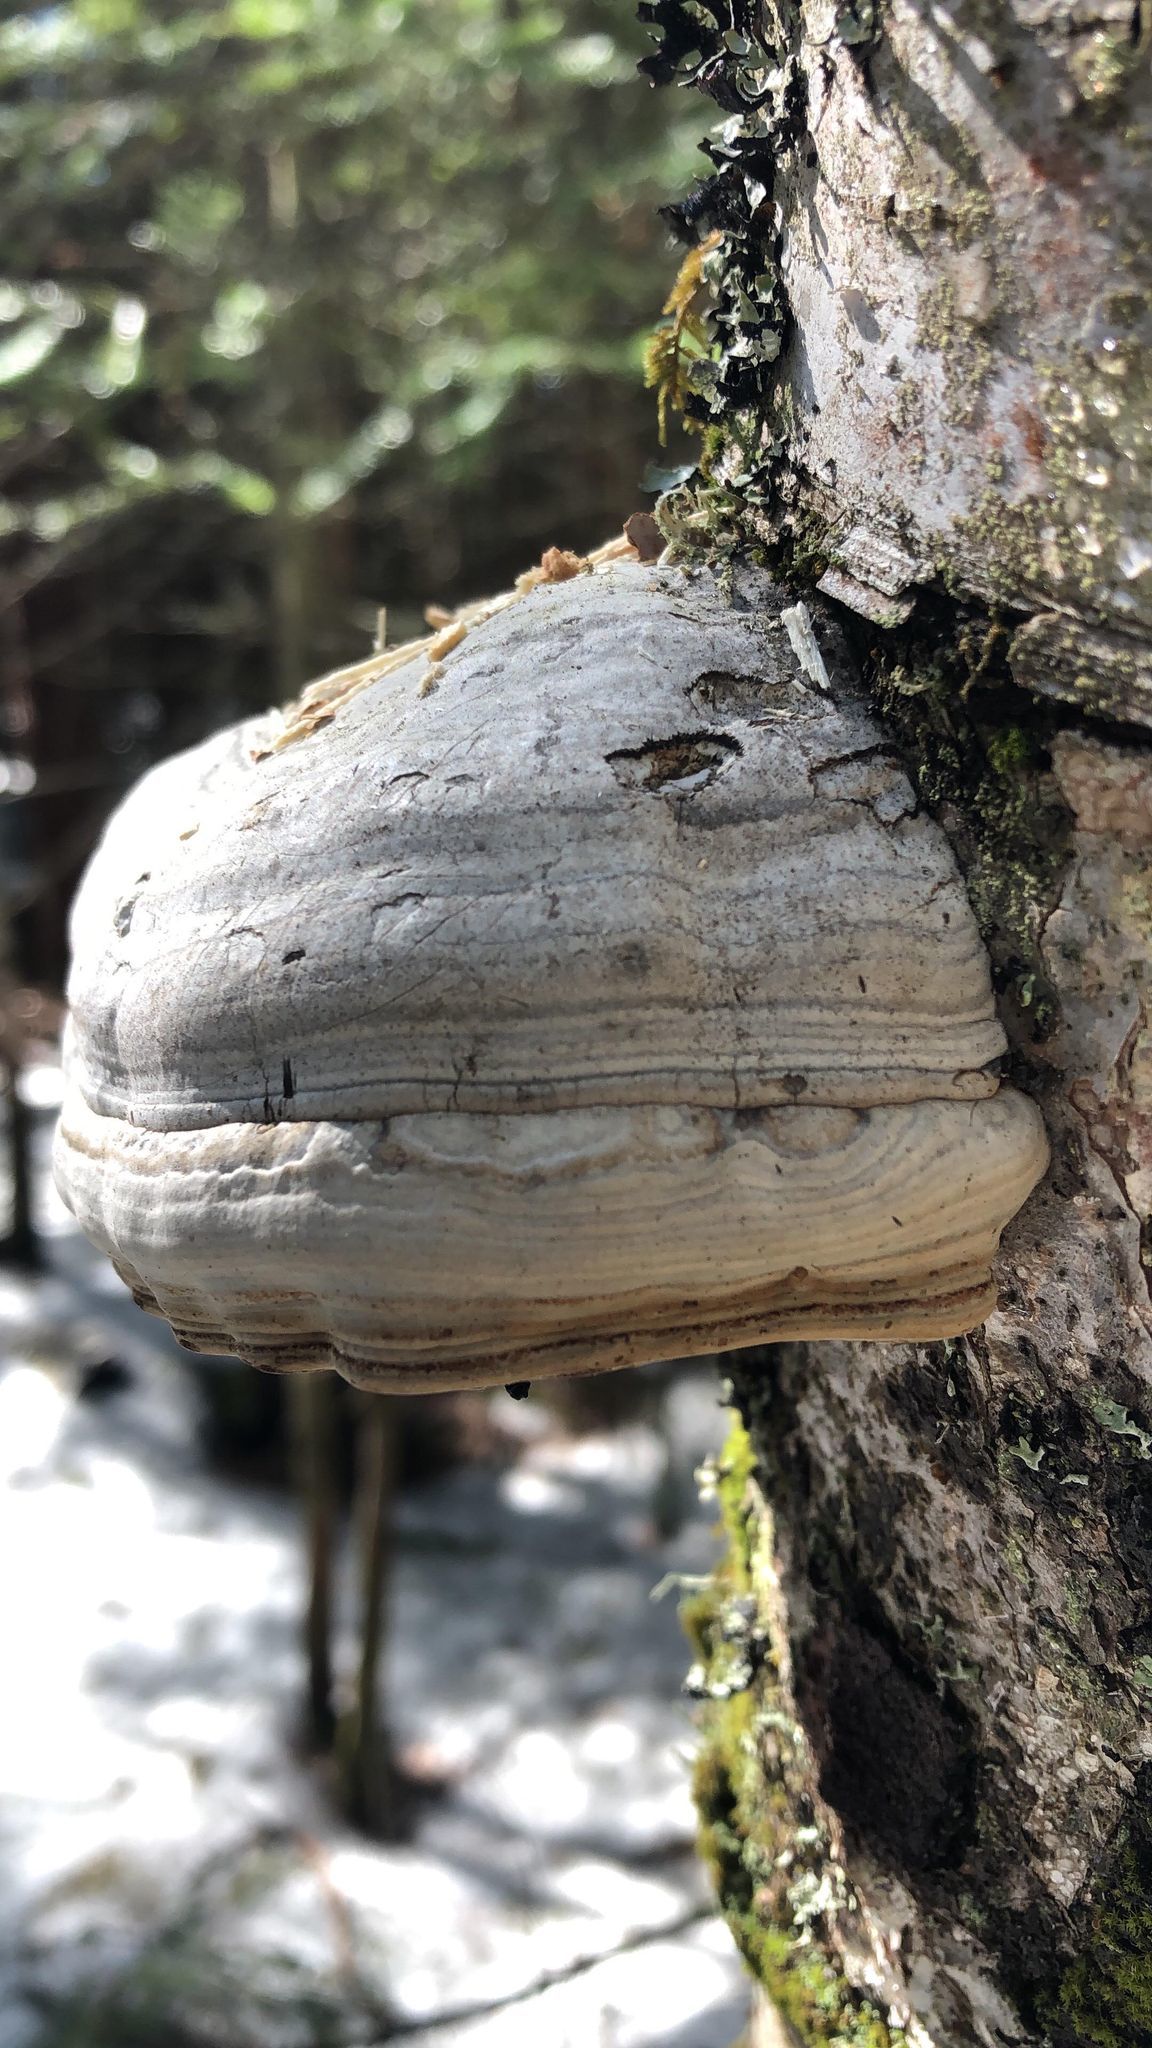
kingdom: Fungi
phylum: Basidiomycota
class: Agaricomycetes
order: Polyporales
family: Polyporaceae
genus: Fomes
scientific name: Fomes fomentarius
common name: Hoof fungus
